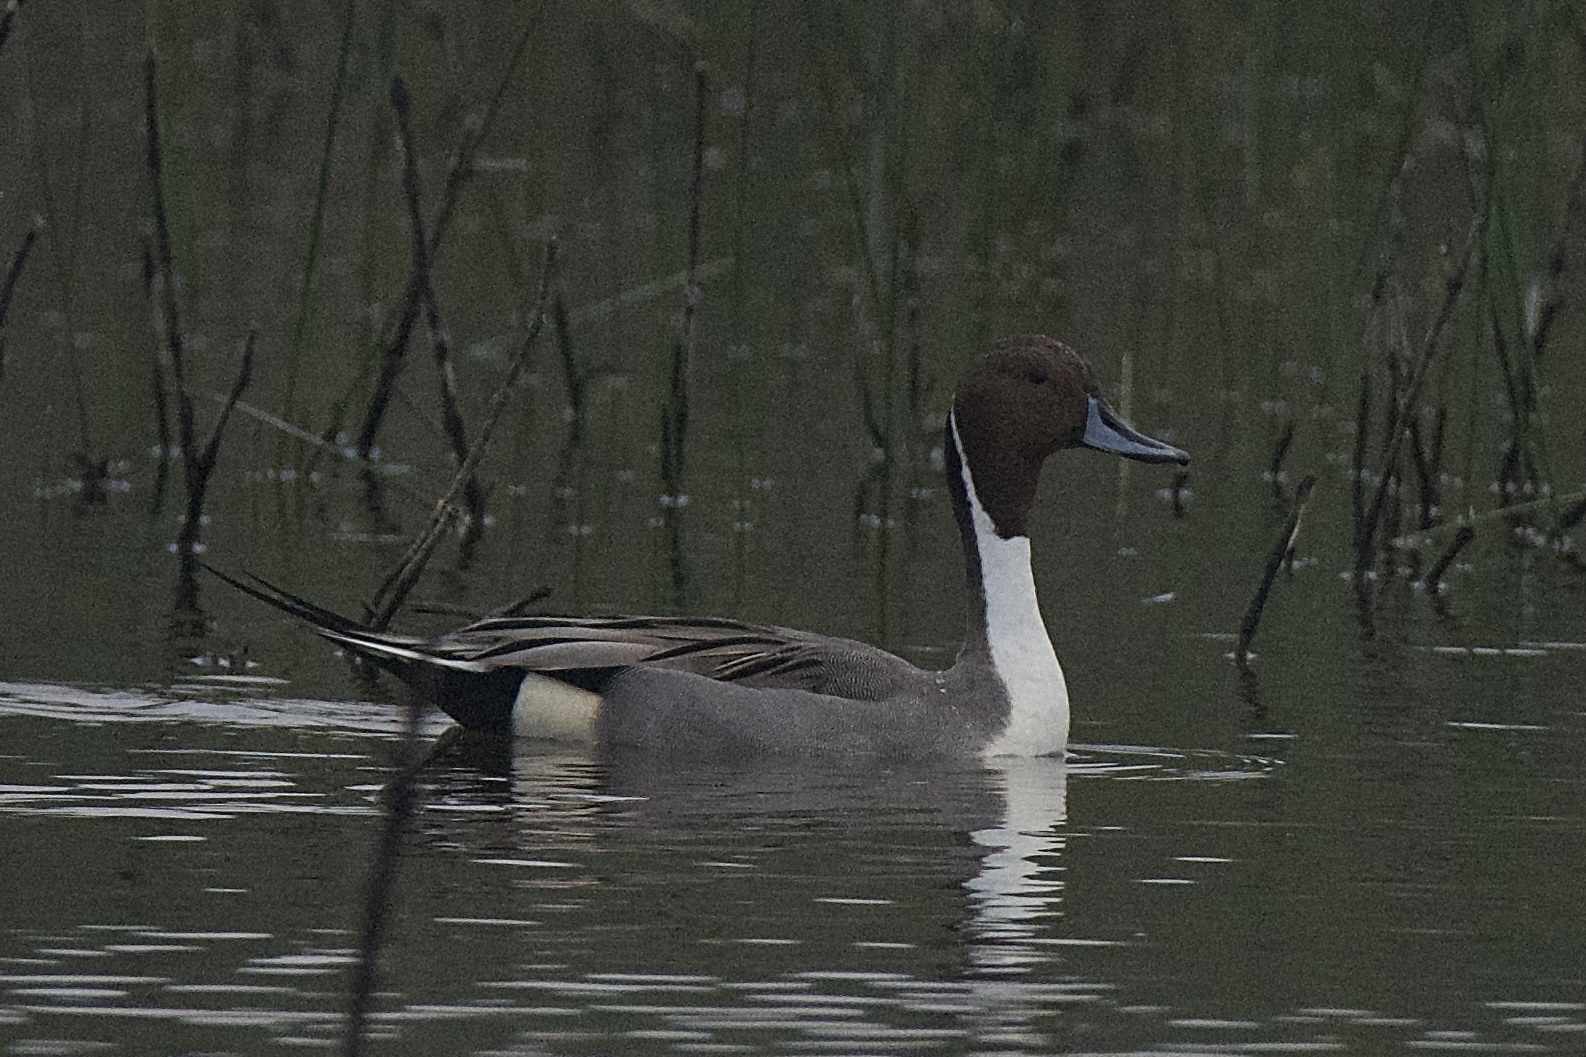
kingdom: Animalia
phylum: Chordata
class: Aves
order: Anseriformes
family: Anatidae
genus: Anas
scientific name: Anas acuta
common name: Northern pintail
